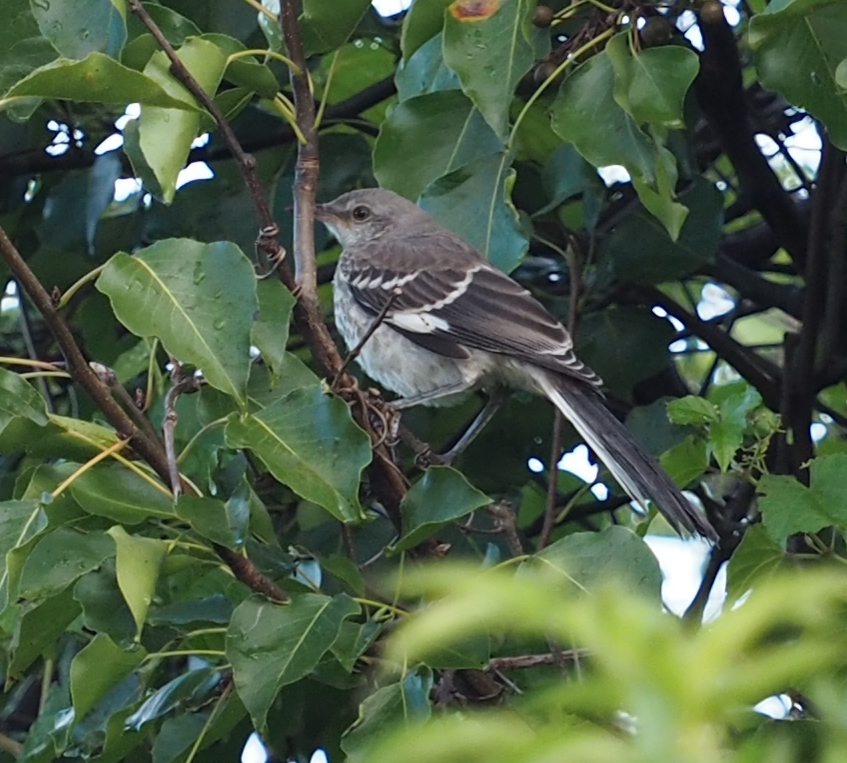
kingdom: Animalia
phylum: Chordata
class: Aves
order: Passeriformes
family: Mimidae
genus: Mimus
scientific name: Mimus polyglottos
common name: Northern mockingbird
